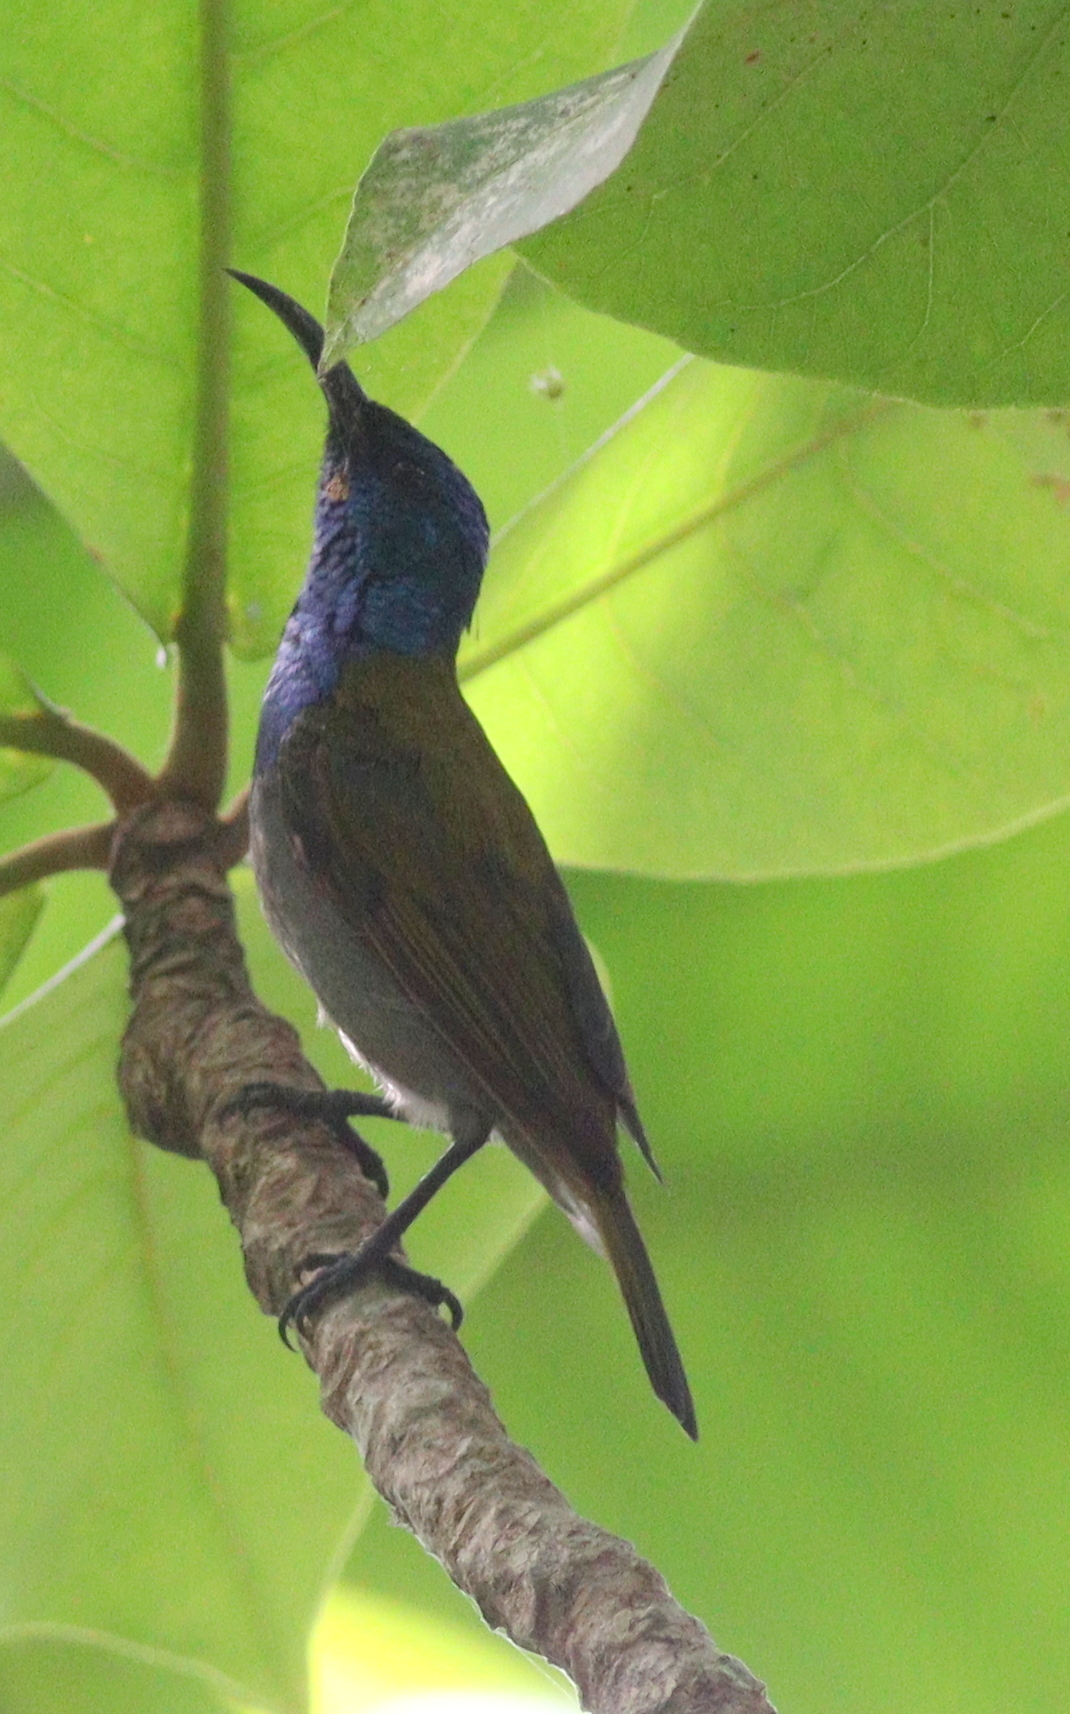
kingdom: Animalia
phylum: Chordata
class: Aves
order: Passeriformes
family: Nectariniidae
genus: Cyanomitra
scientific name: Cyanomitra verticalis
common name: Green-headed sunbird
